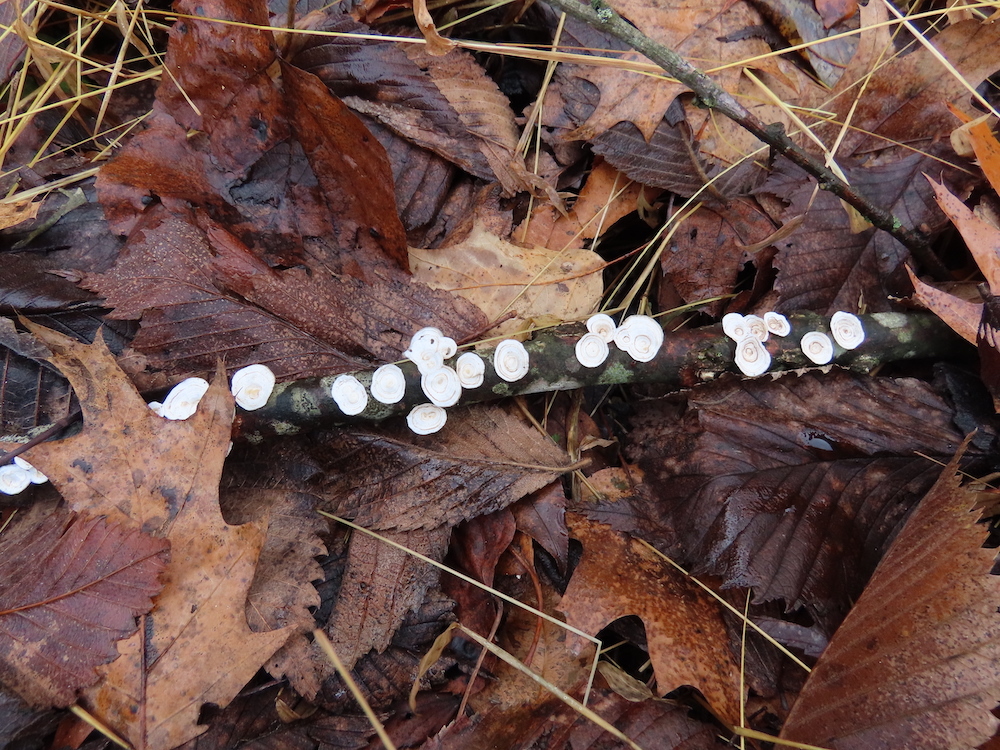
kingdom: Fungi
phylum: Basidiomycota
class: Agaricomycetes
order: Polyporales
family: Polyporaceae
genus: Poronidulus
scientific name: Poronidulus conchifer
